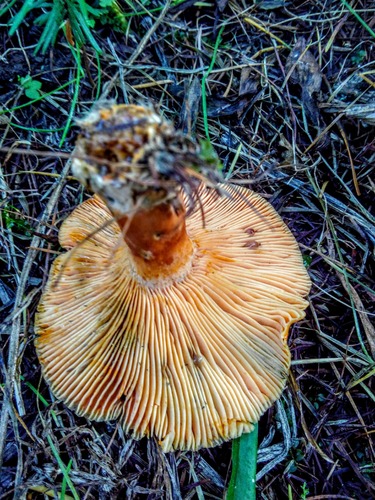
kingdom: Fungi
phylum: Basidiomycota
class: Agaricomycetes
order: Russulales
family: Russulaceae
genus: Lactarius
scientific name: Lactarius deliciosus
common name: Saffron milk-cap
